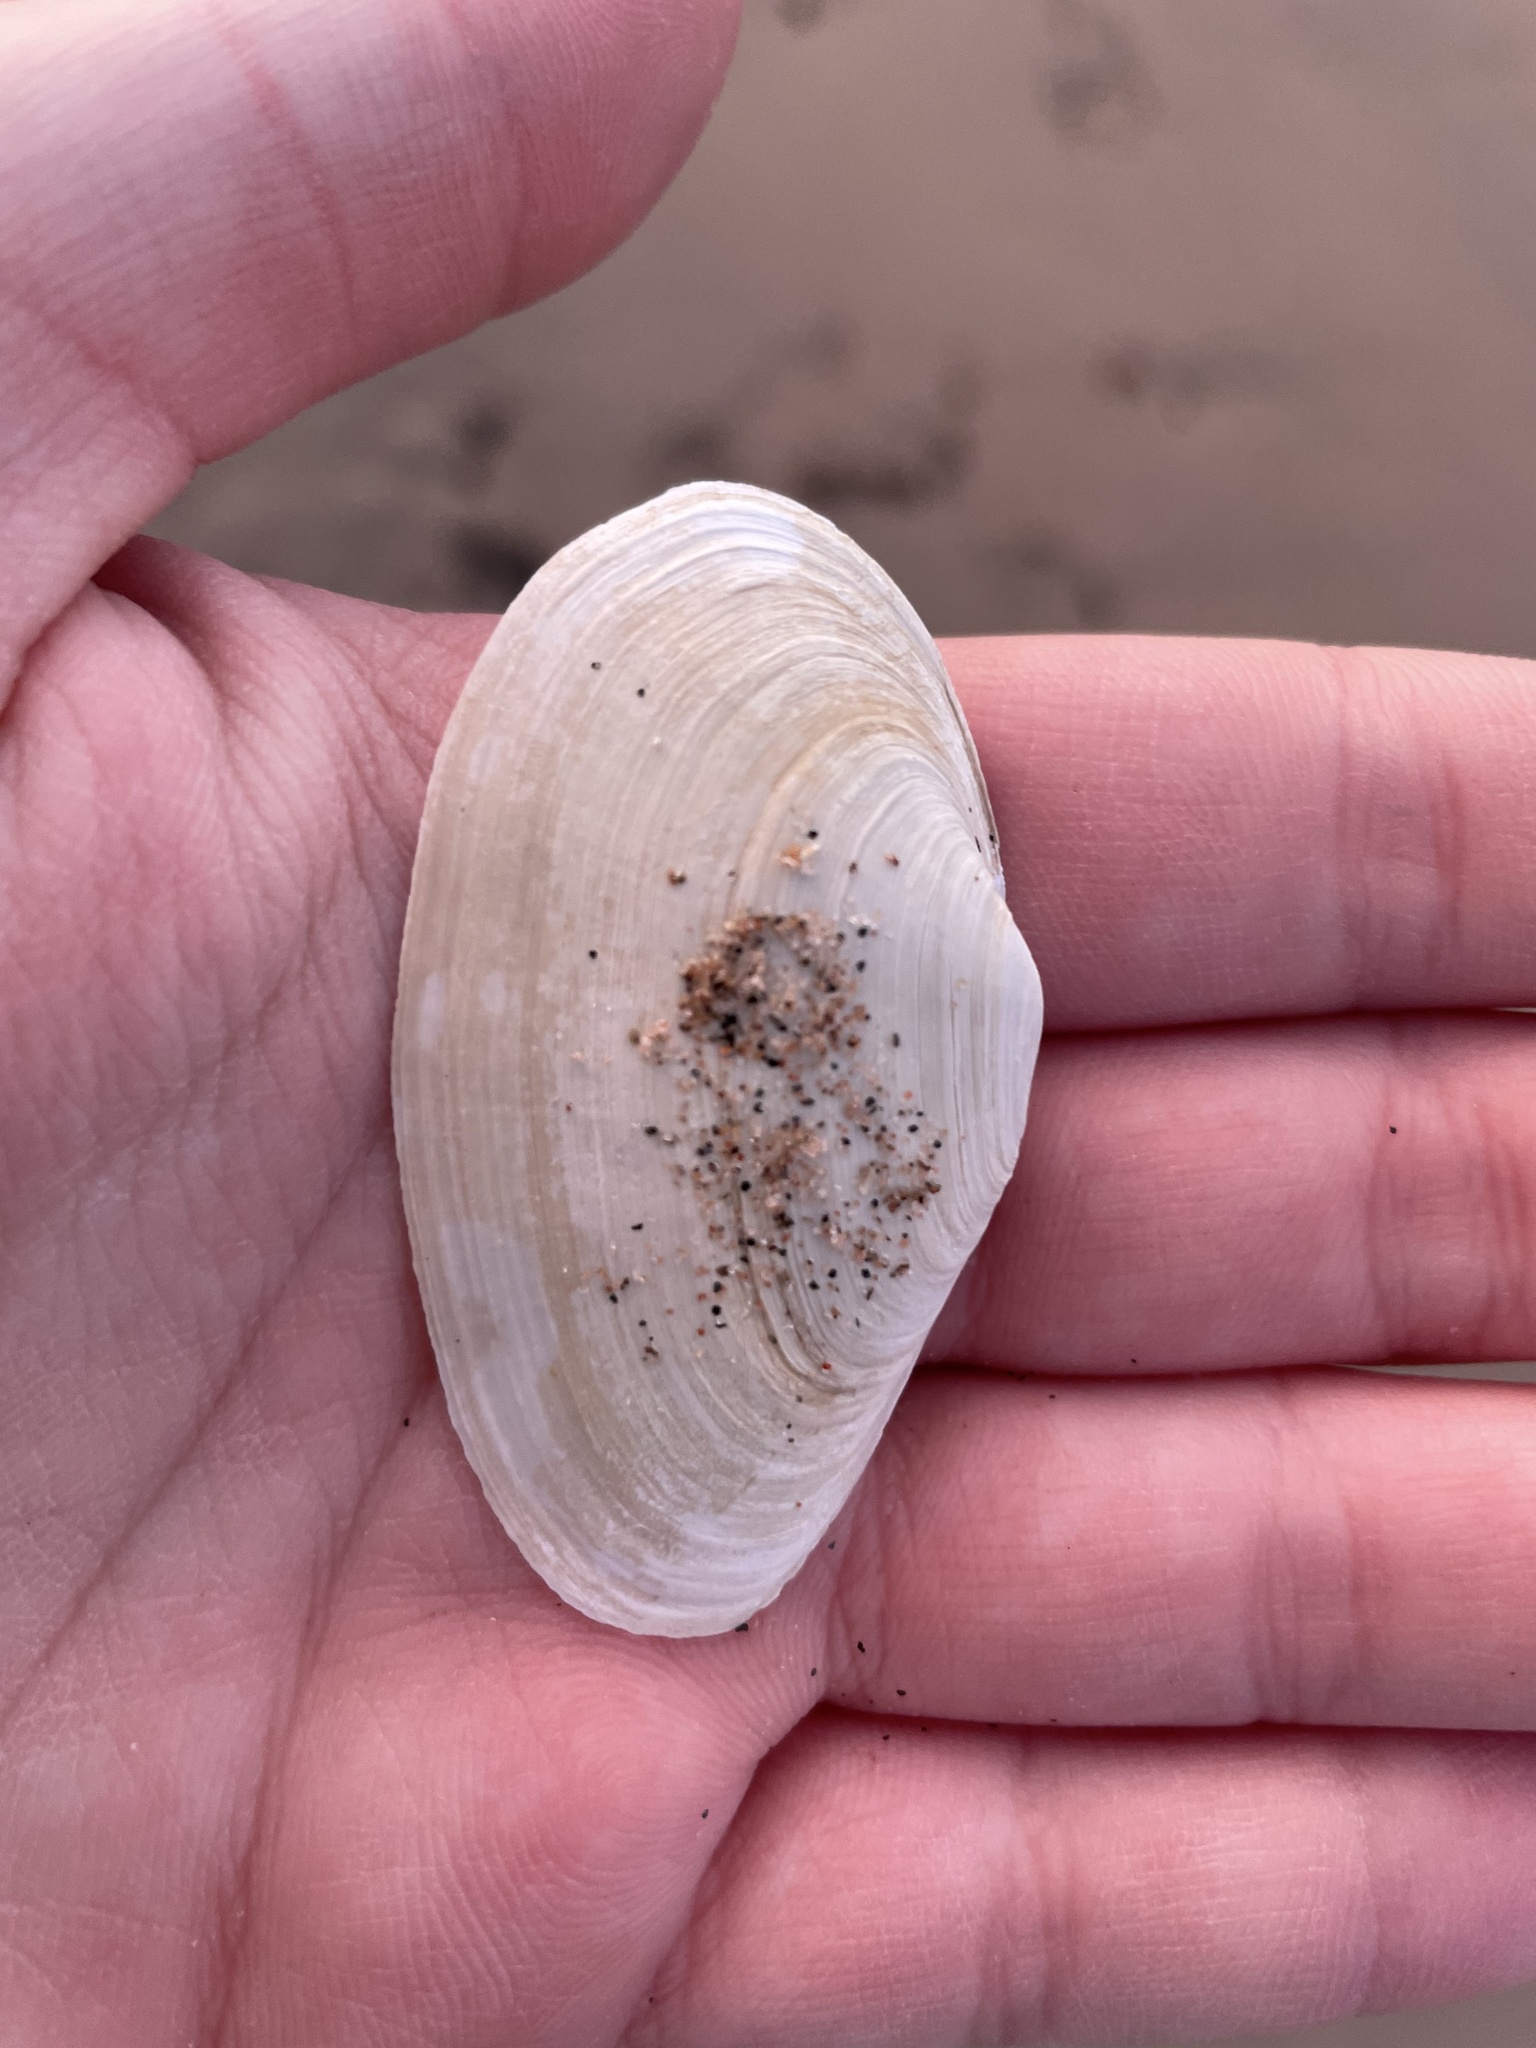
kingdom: Animalia
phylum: Mollusca
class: Bivalvia
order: Myida
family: Myidae
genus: Mya
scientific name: Mya arenaria
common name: Soft-shelled clam
